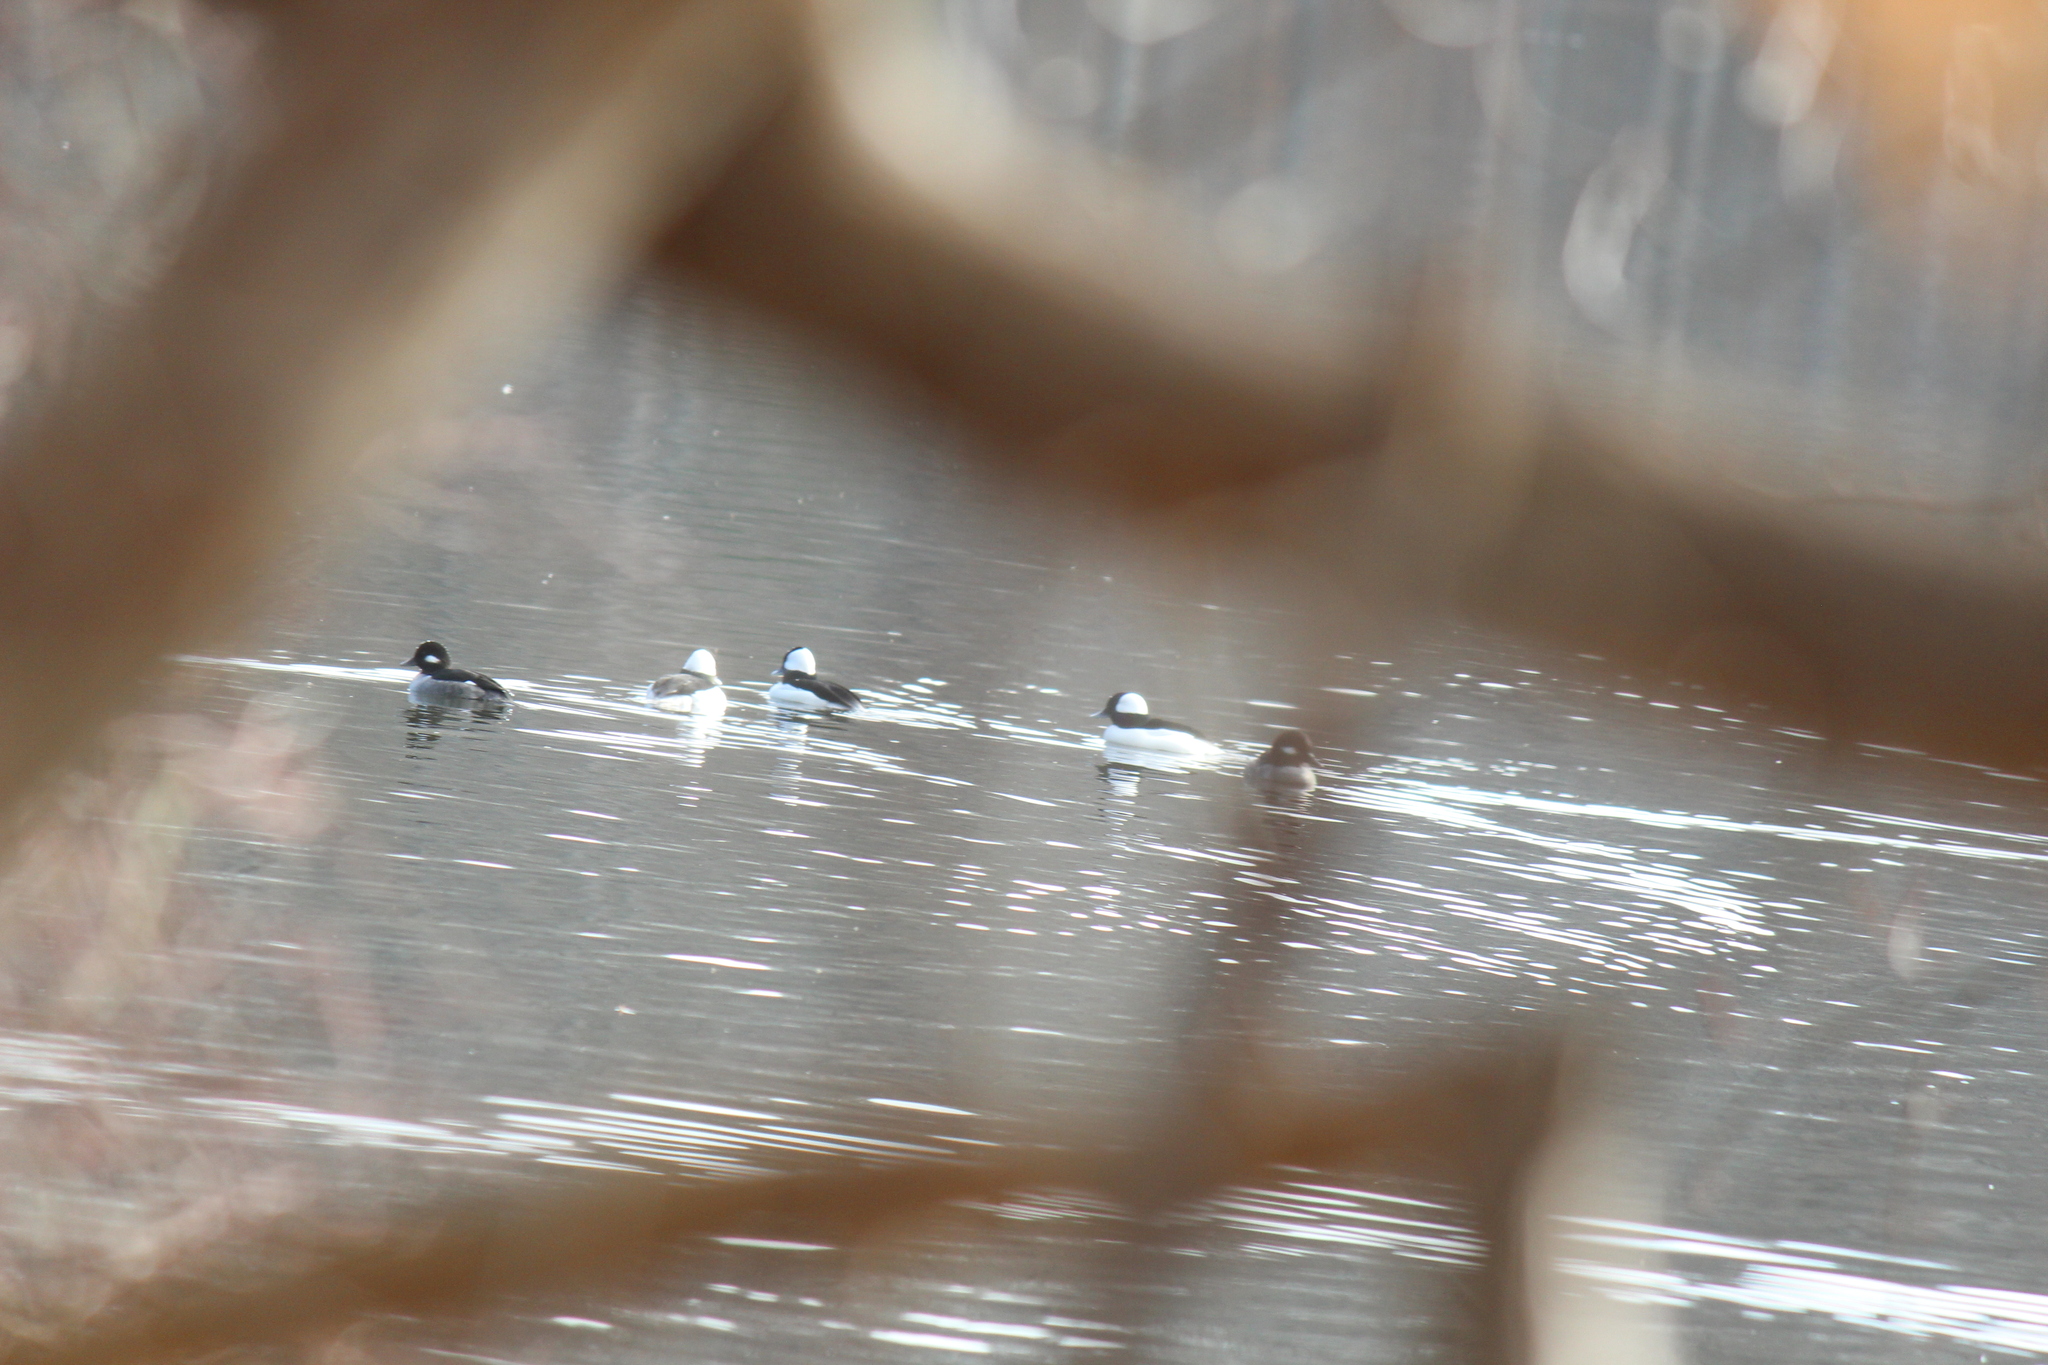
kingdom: Animalia
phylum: Chordata
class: Aves
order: Anseriformes
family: Anatidae
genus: Bucephala
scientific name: Bucephala albeola
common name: Bufflehead
